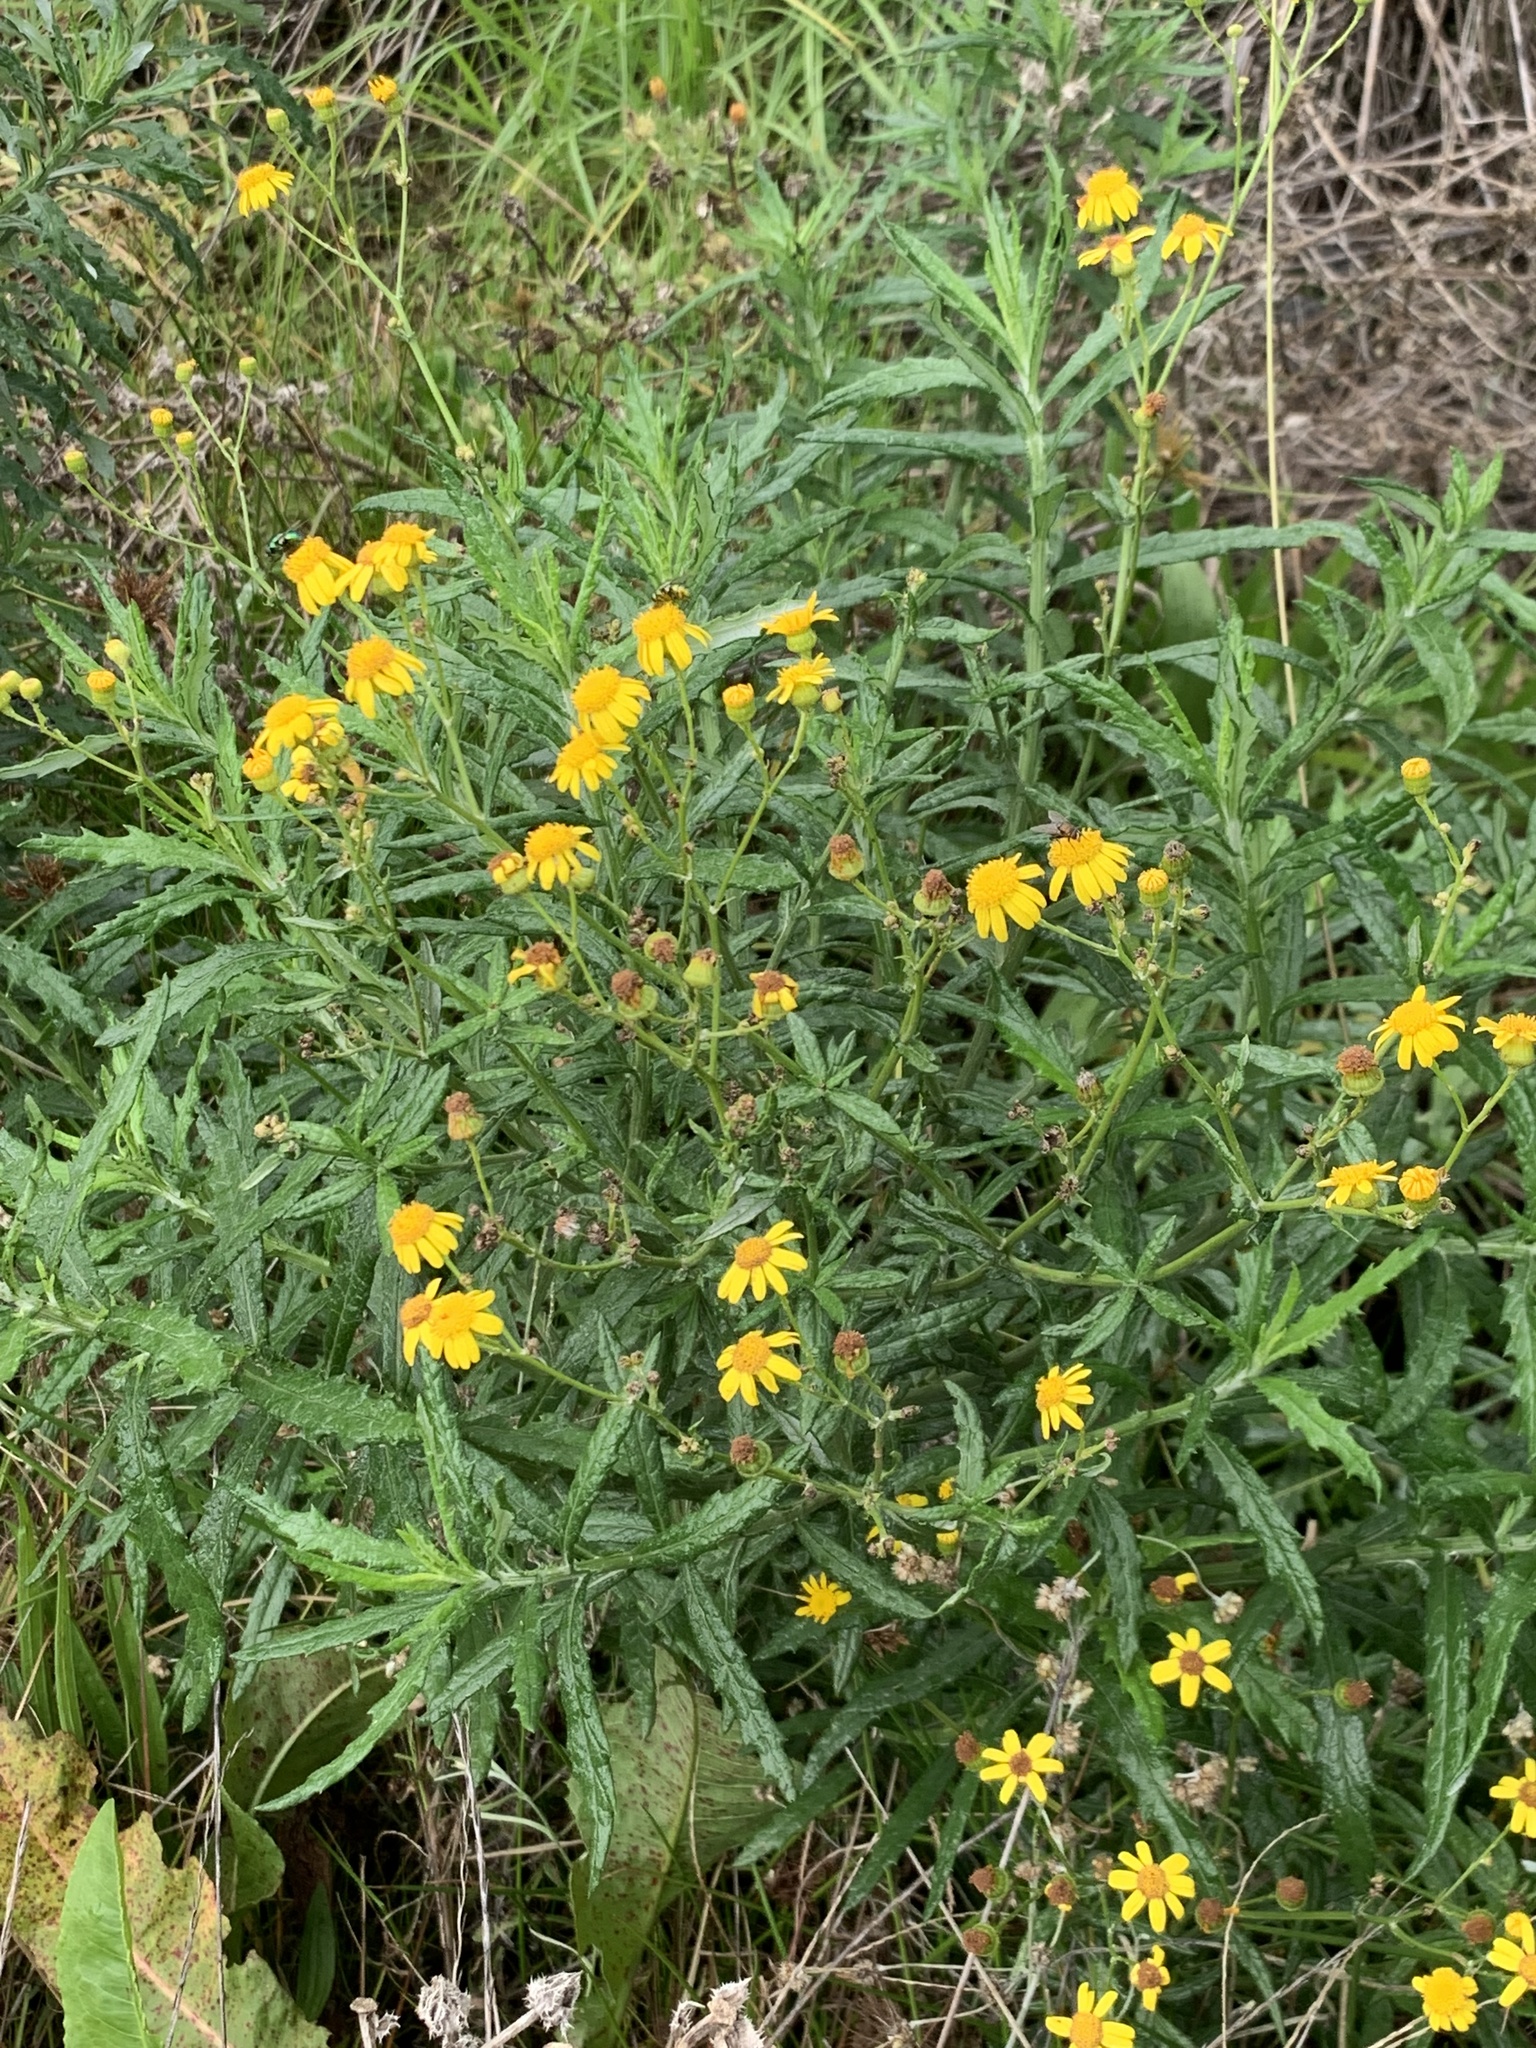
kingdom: Plantae
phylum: Tracheophyta
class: Magnoliopsida
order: Asterales
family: Asteraceae
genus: Senecio
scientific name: Senecio pterophorus
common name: Shoddy ragwort
